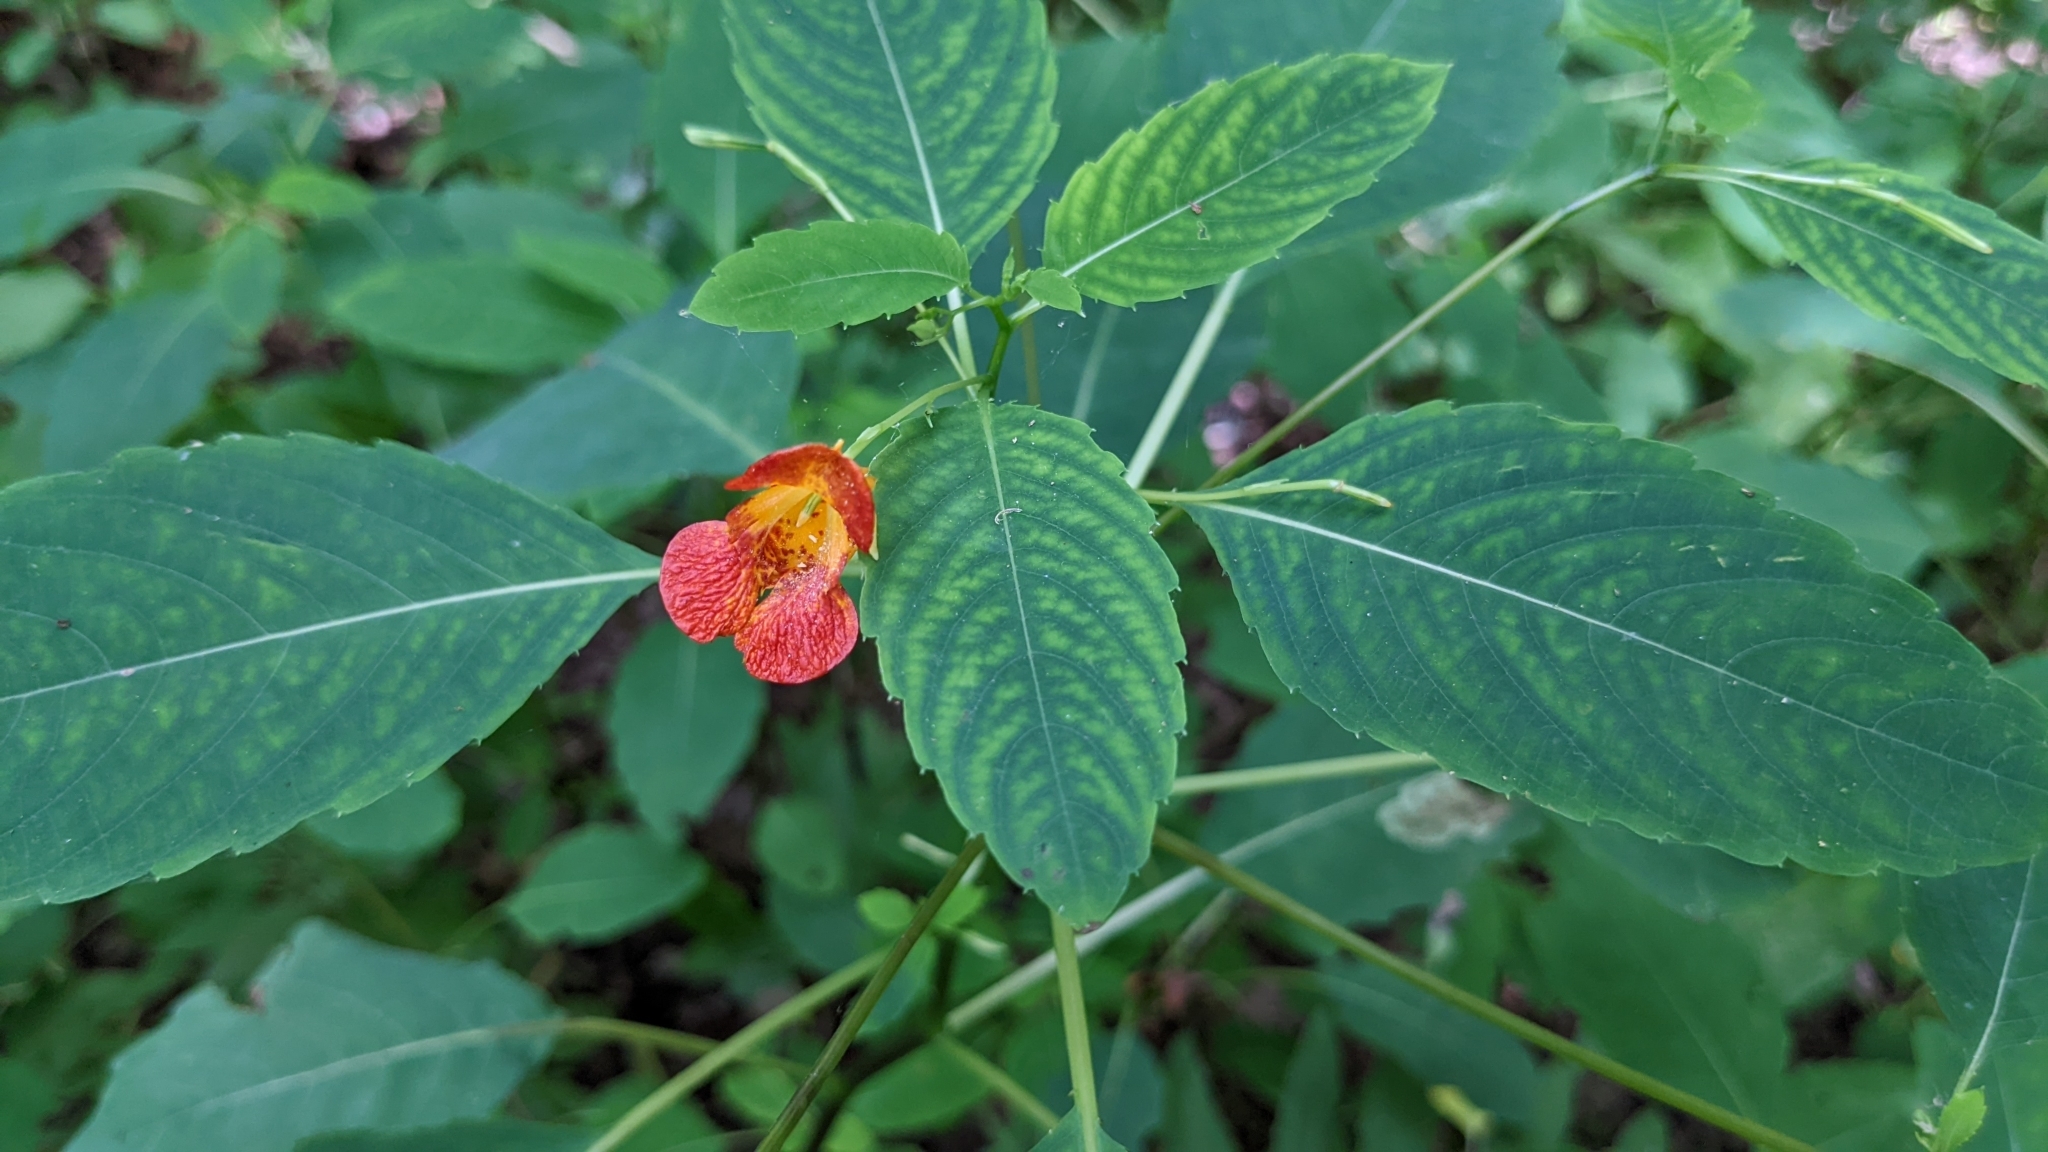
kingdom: Plantae
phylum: Tracheophyta
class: Magnoliopsida
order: Ericales
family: Balsaminaceae
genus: Impatiens
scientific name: Impatiens capensis
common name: Orange balsam
